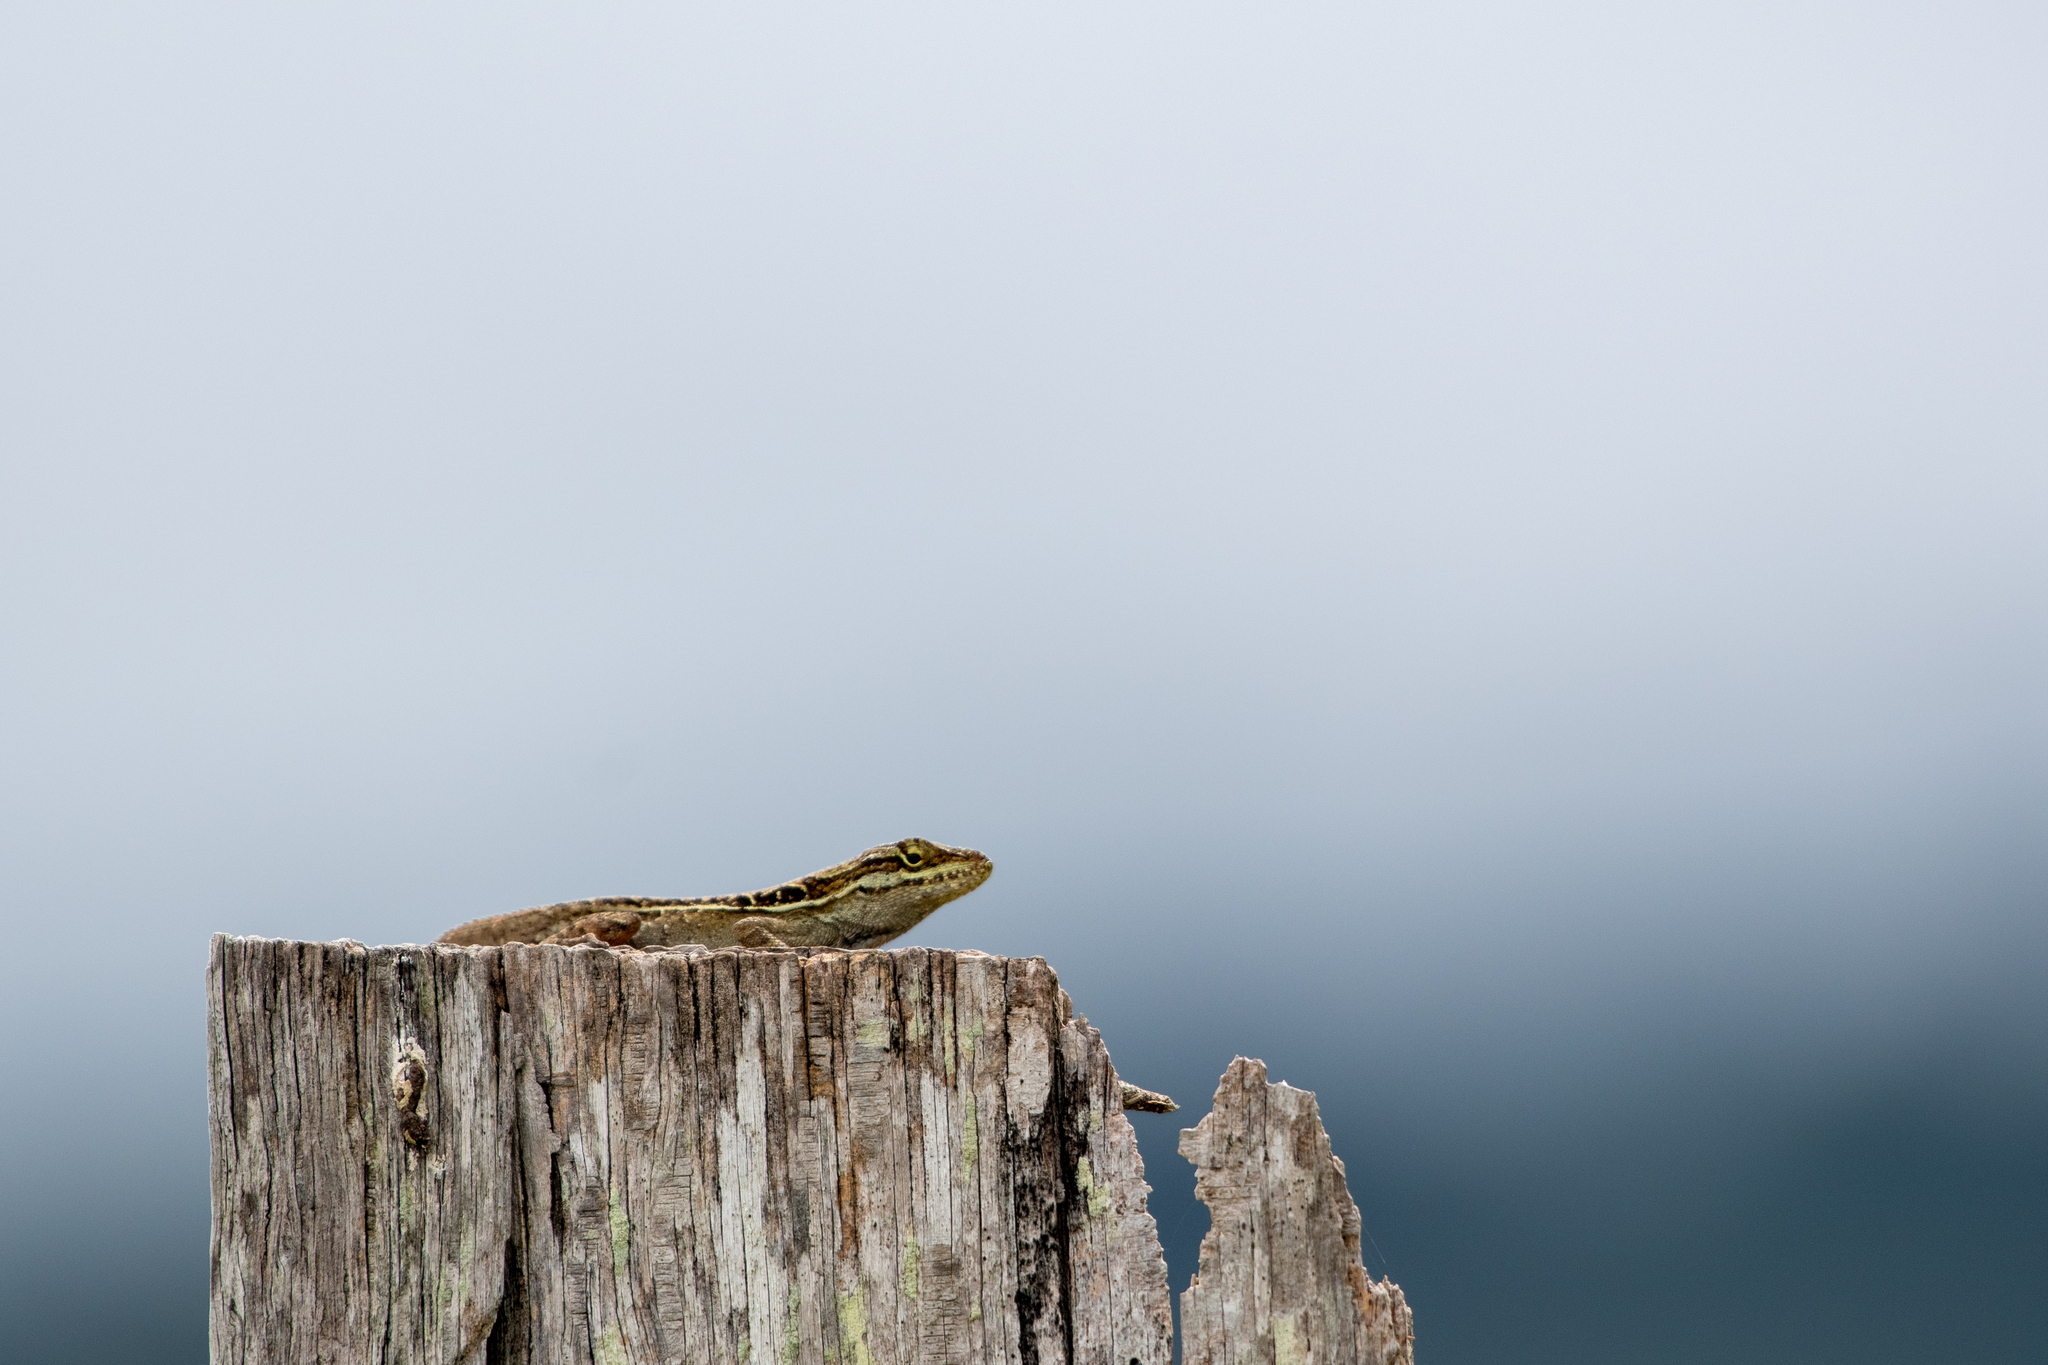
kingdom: Animalia
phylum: Chordata
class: Squamata
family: Dactyloidae
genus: Anolis
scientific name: Anolis caceresae
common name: Berta’s anole
